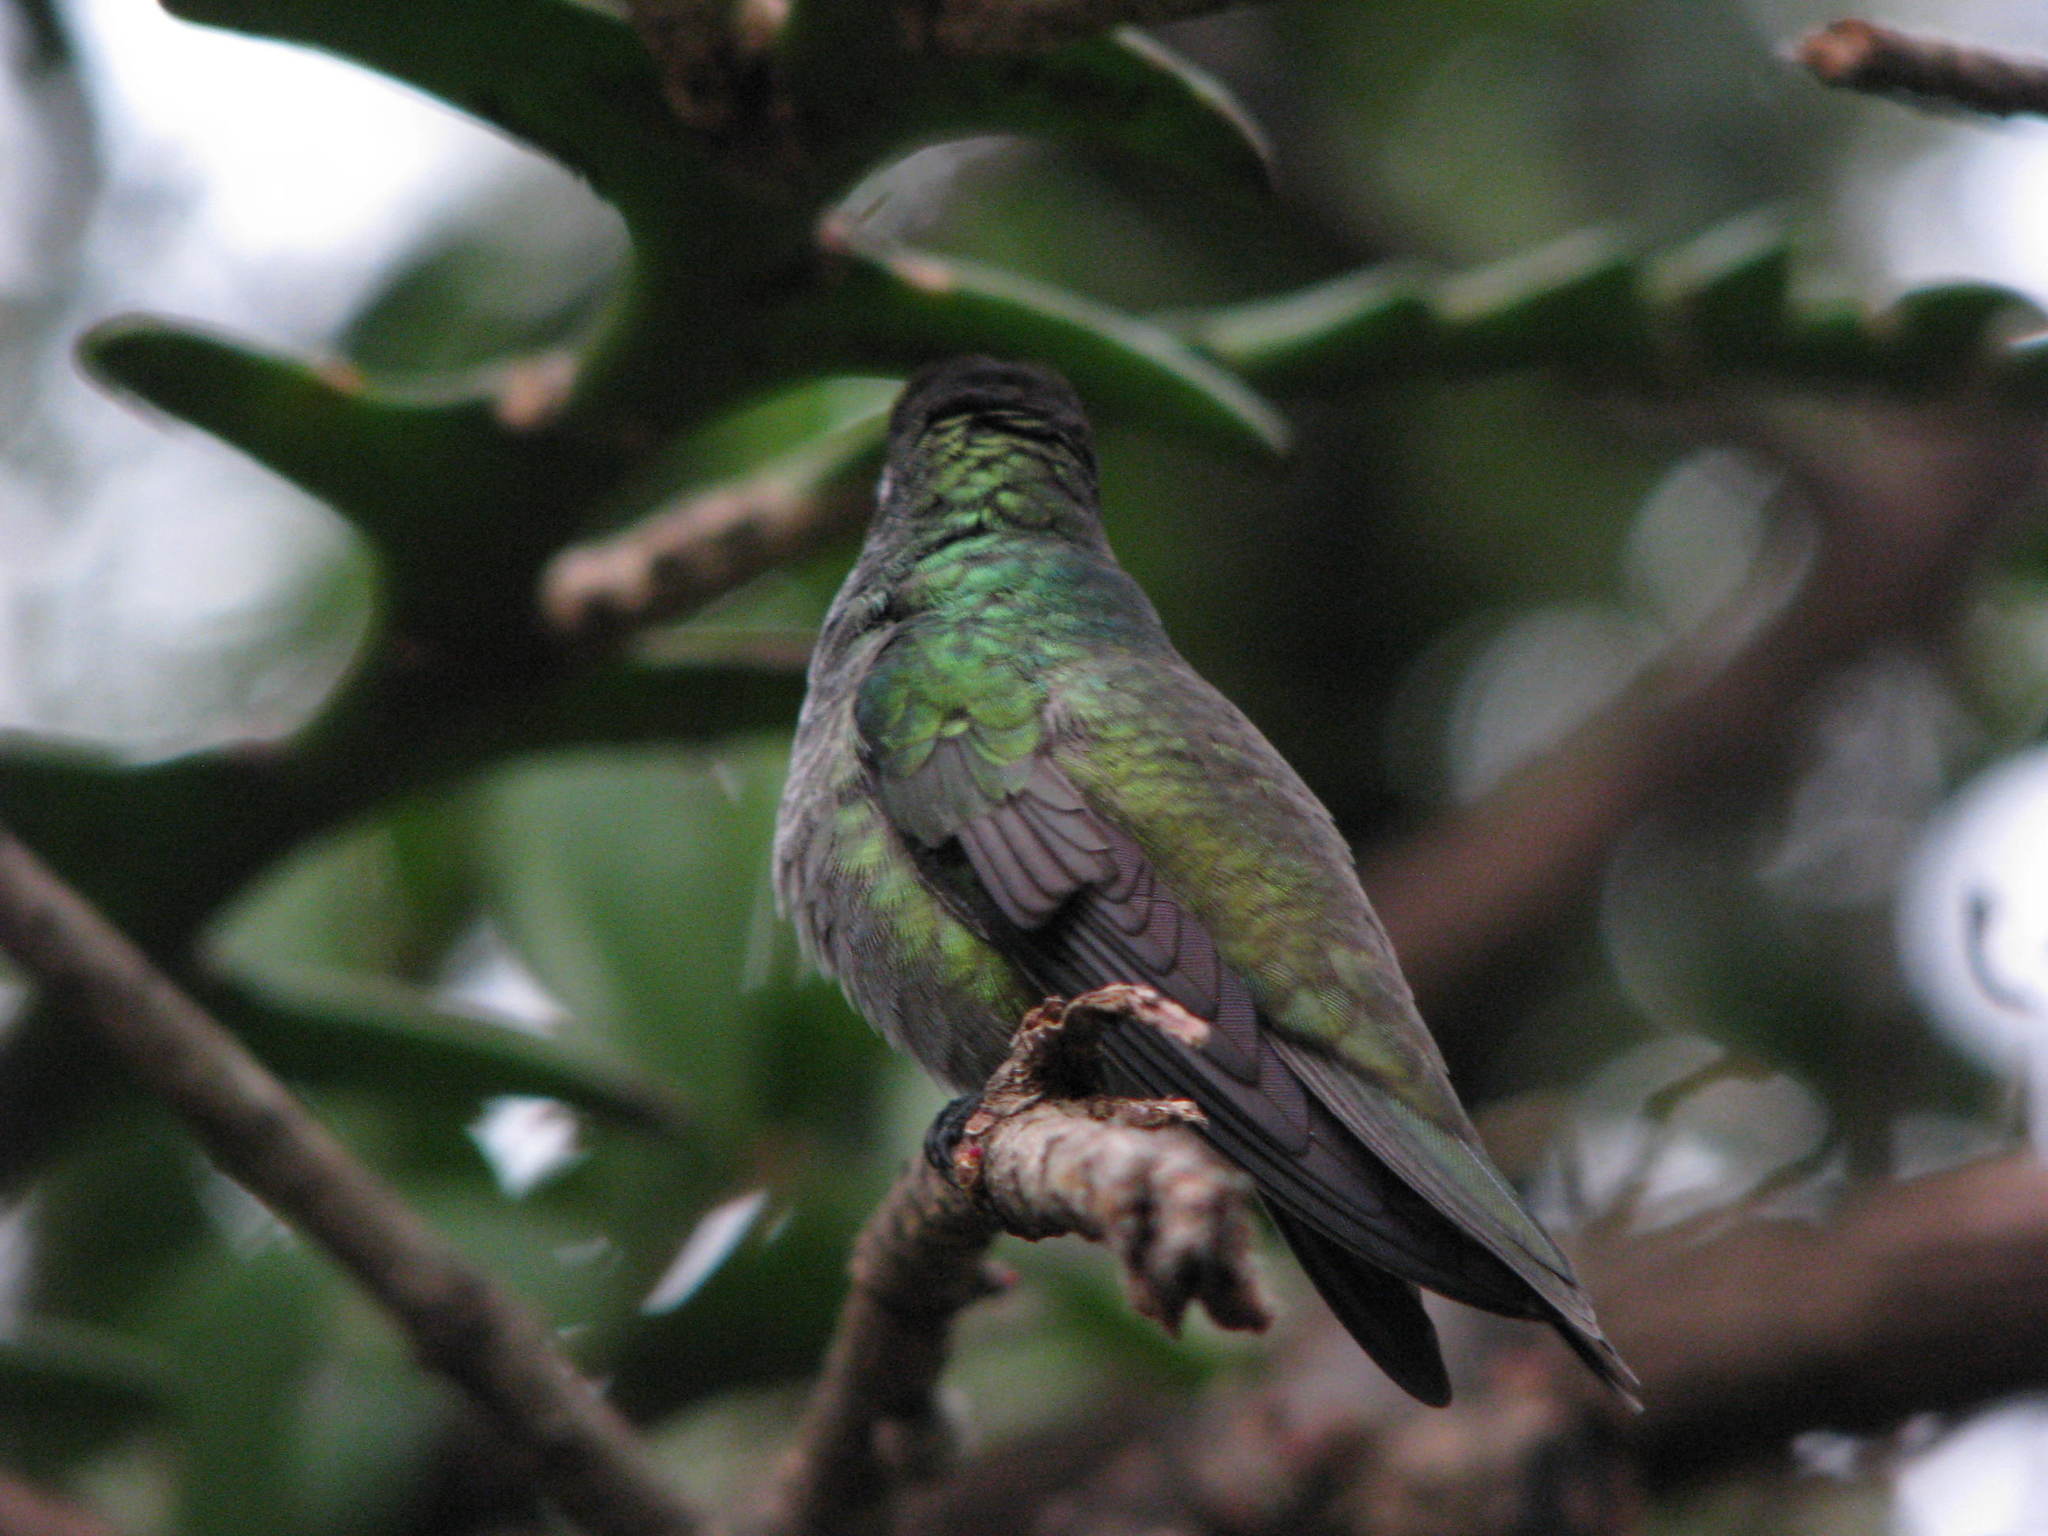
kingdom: Animalia
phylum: Chordata
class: Aves
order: Apodiformes
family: Trochilidae
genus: Chrysuronia
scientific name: Chrysuronia versicolor
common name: Versicolored emerald
